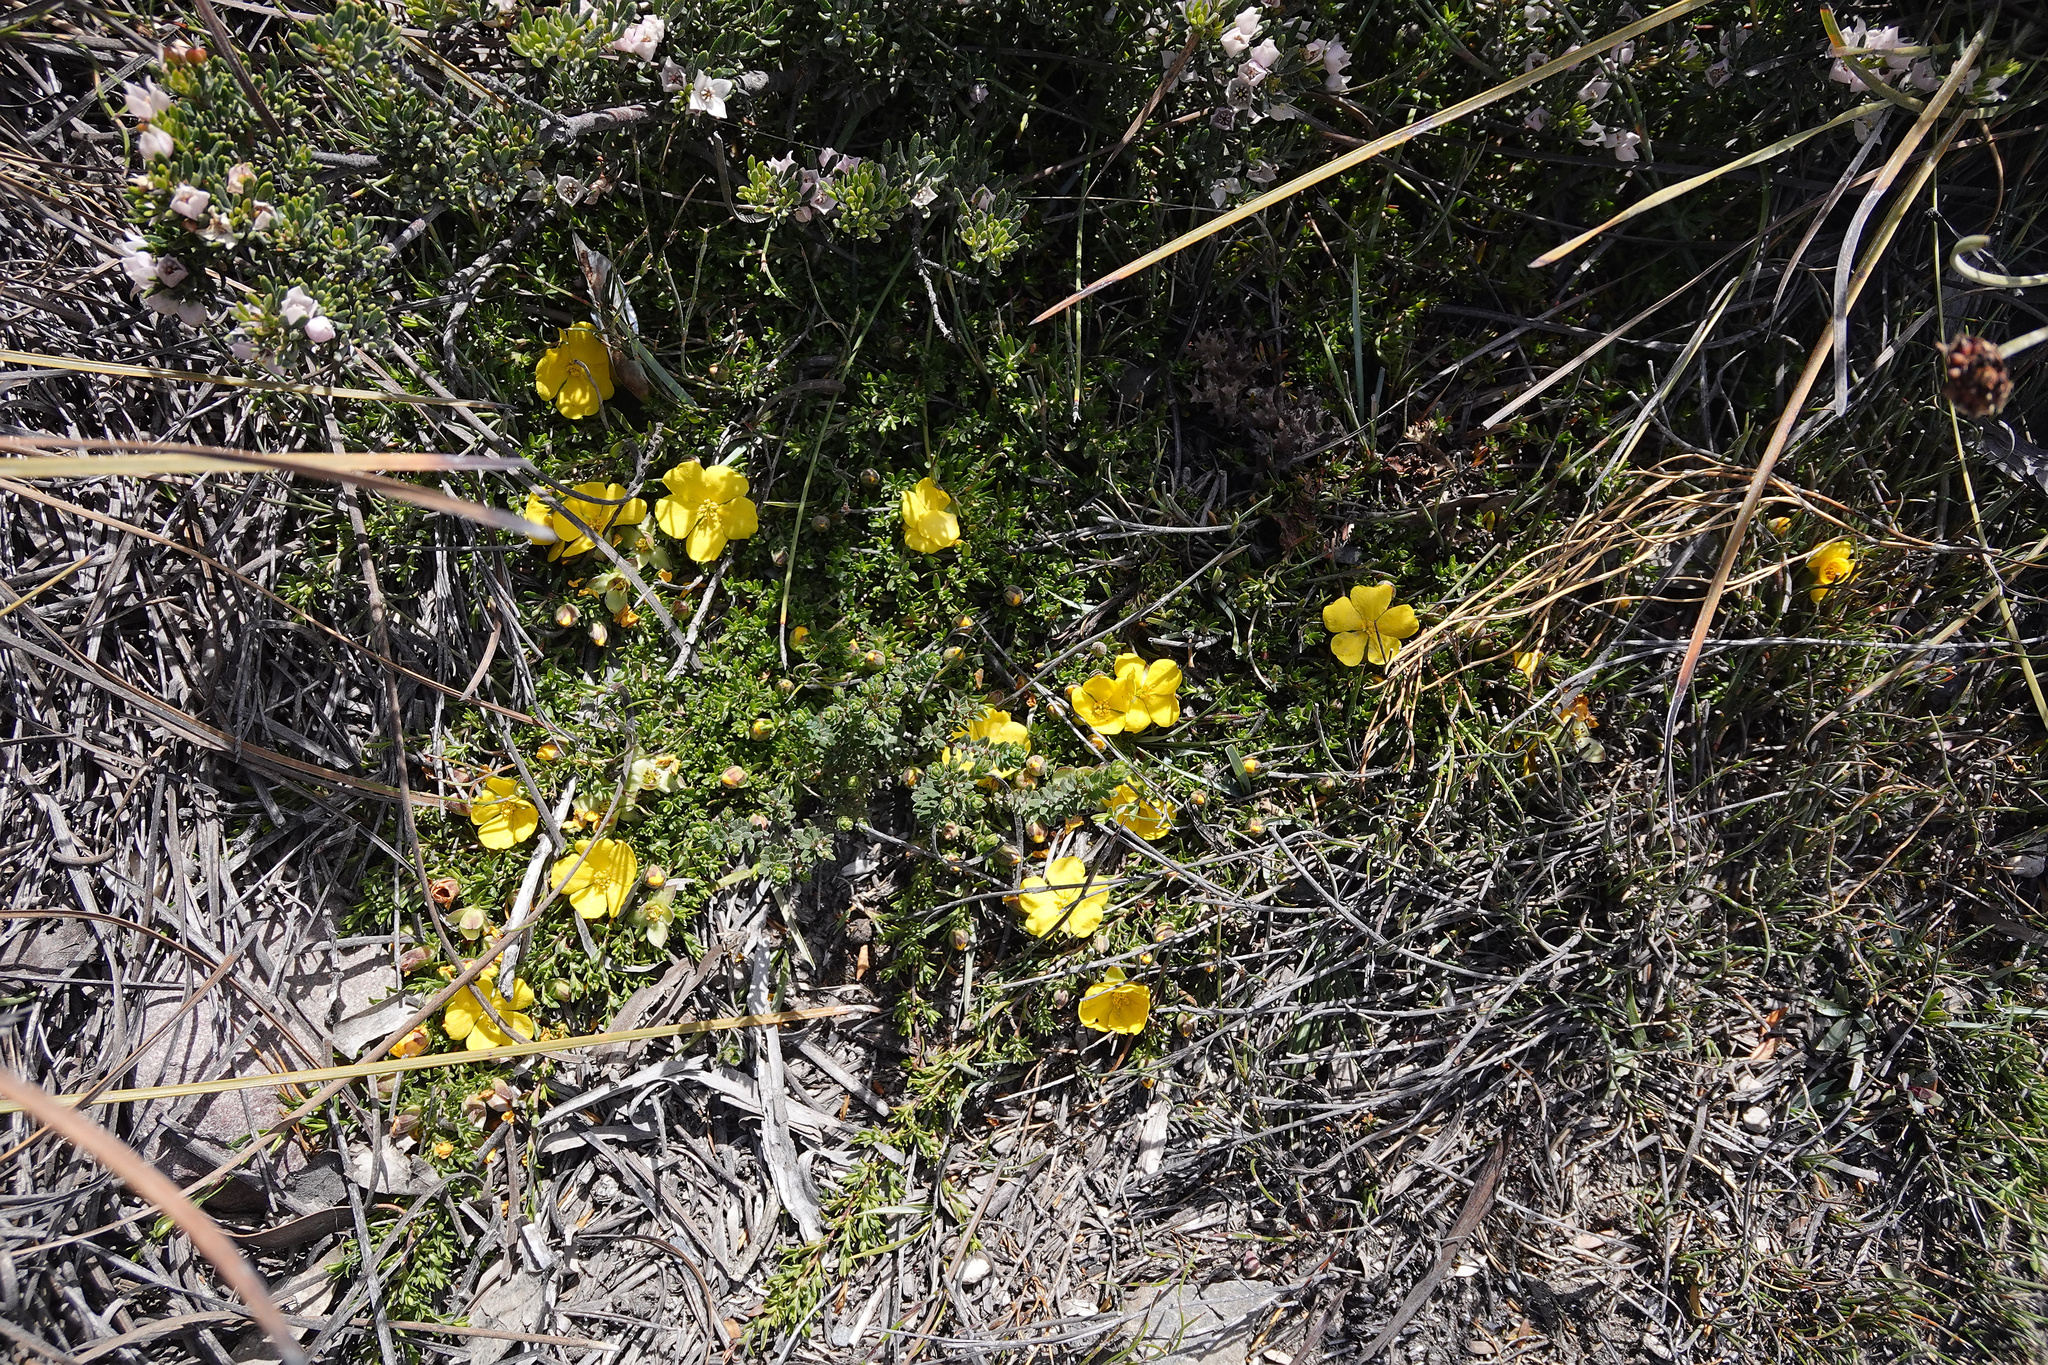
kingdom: Plantae
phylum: Tracheophyta
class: Magnoliopsida
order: Dilleniales
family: Dilleniaceae
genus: Hibbertia
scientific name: Hibbertia procumbens
